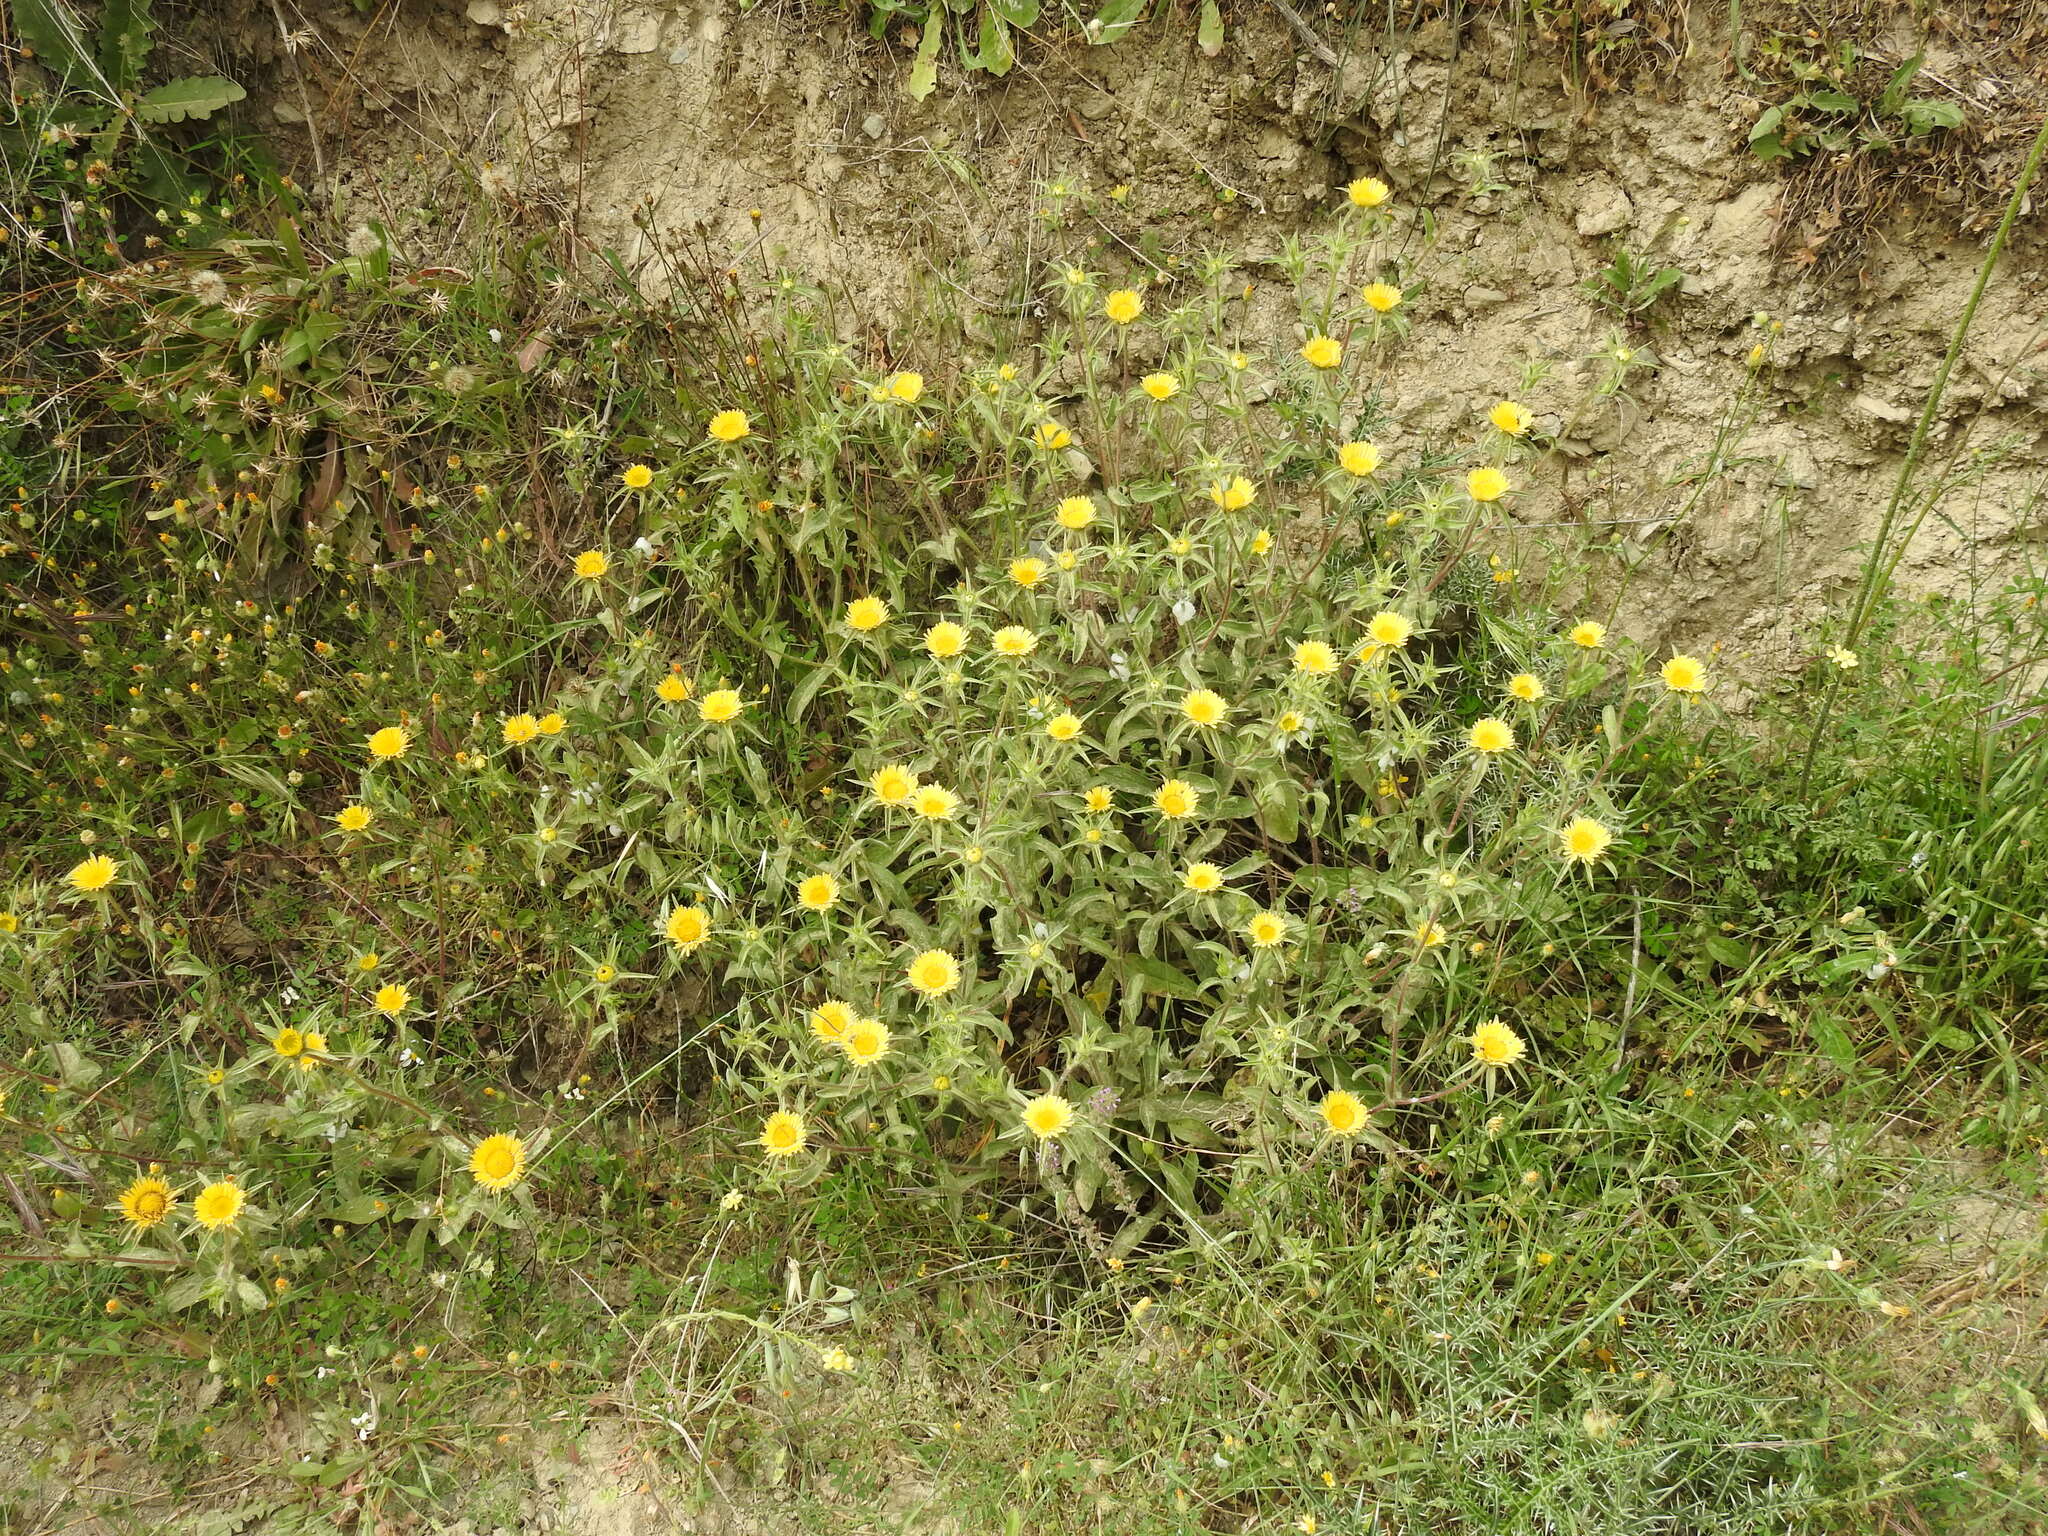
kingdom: Plantae
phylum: Tracheophyta
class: Magnoliopsida
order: Asterales
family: Asteraceae
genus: Pallenis
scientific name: Pallenis spinosa
